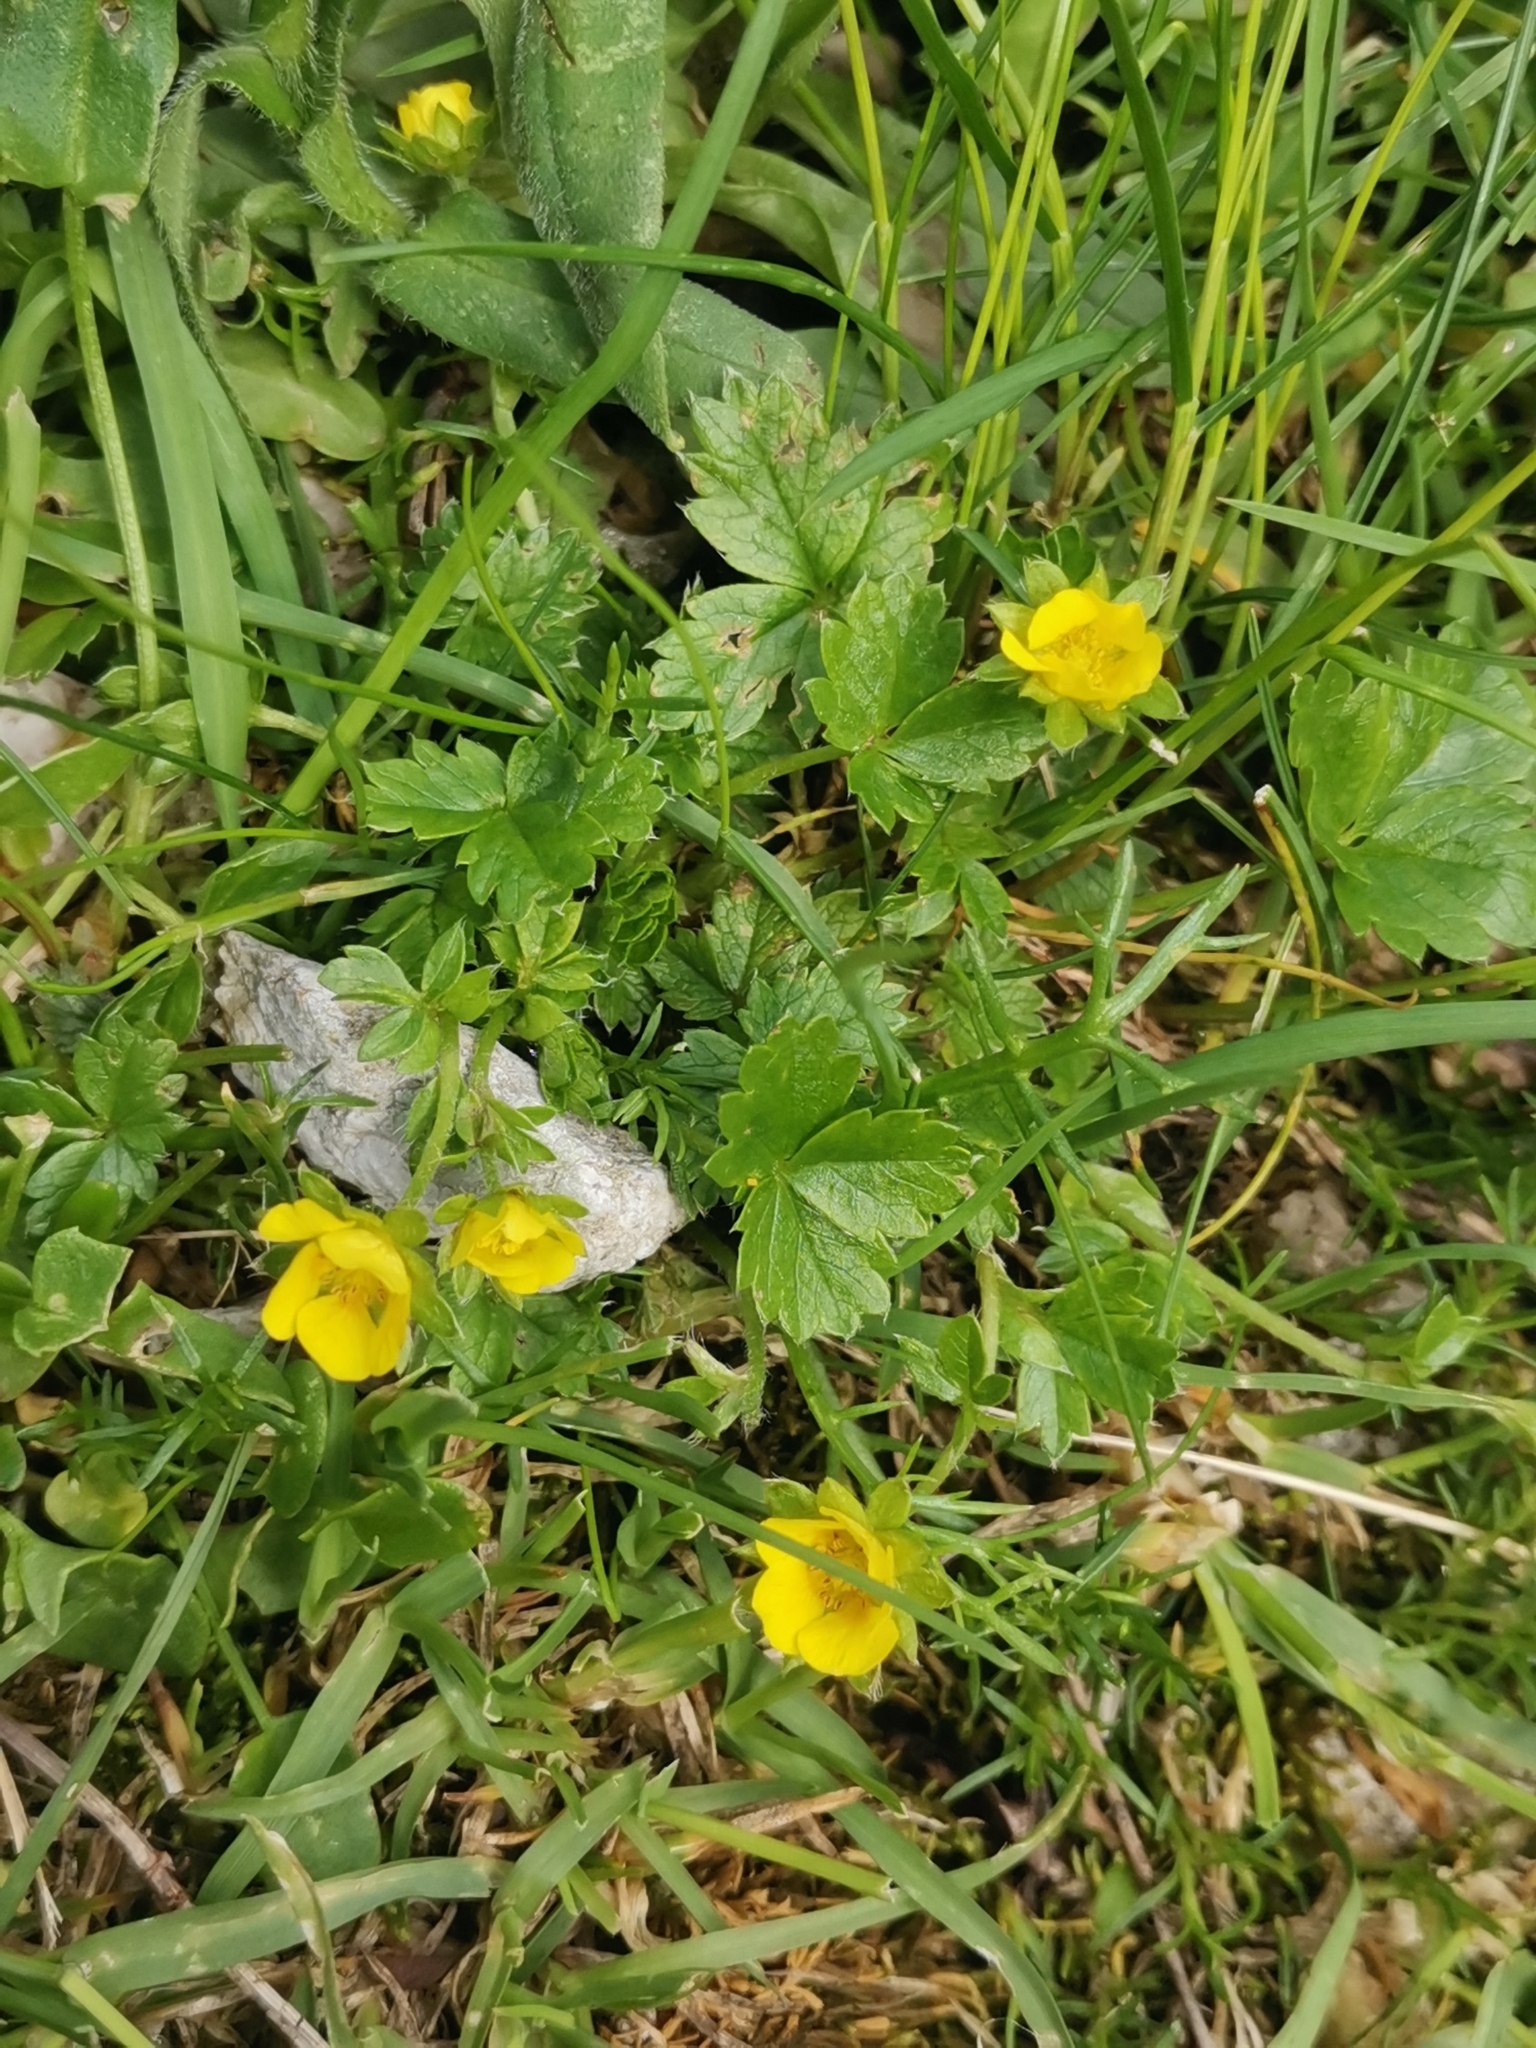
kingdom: Plantae
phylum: Tracheophyta
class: Magnoliopsida
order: Rosales
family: Rosaceae
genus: Potentilla
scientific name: Potentilla brauneana
